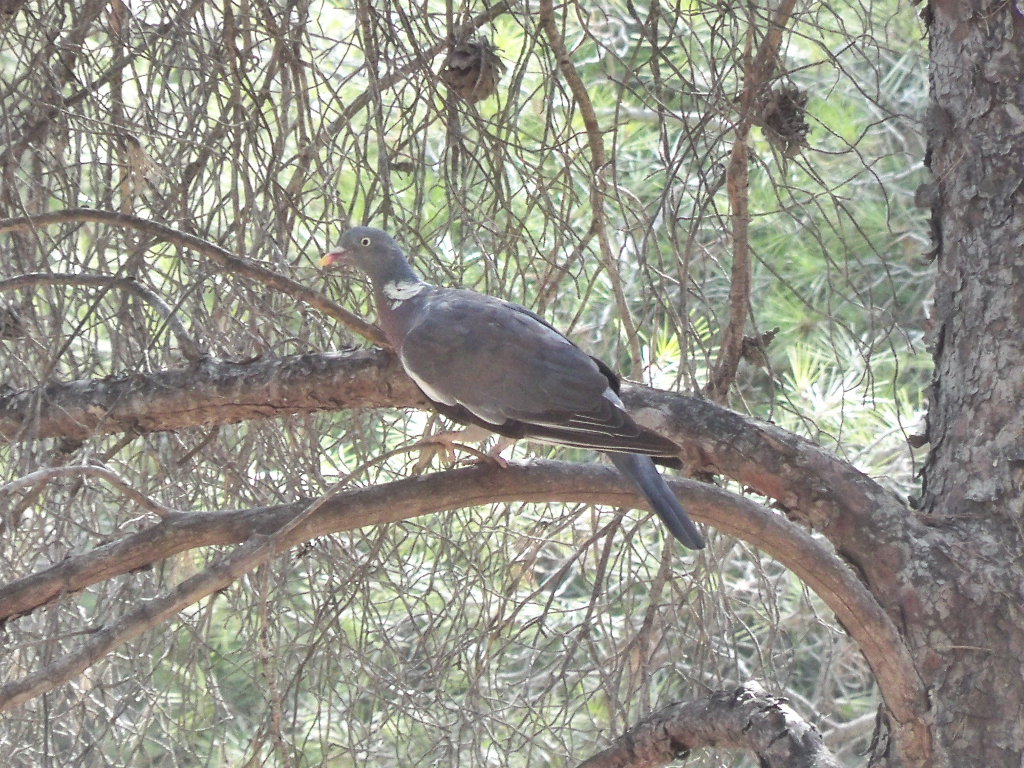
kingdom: Animalia
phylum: Chordata
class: Aves
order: Columbiformes
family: Columbidae
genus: Columba
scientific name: Columba palumbus
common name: Common wood pigeon
